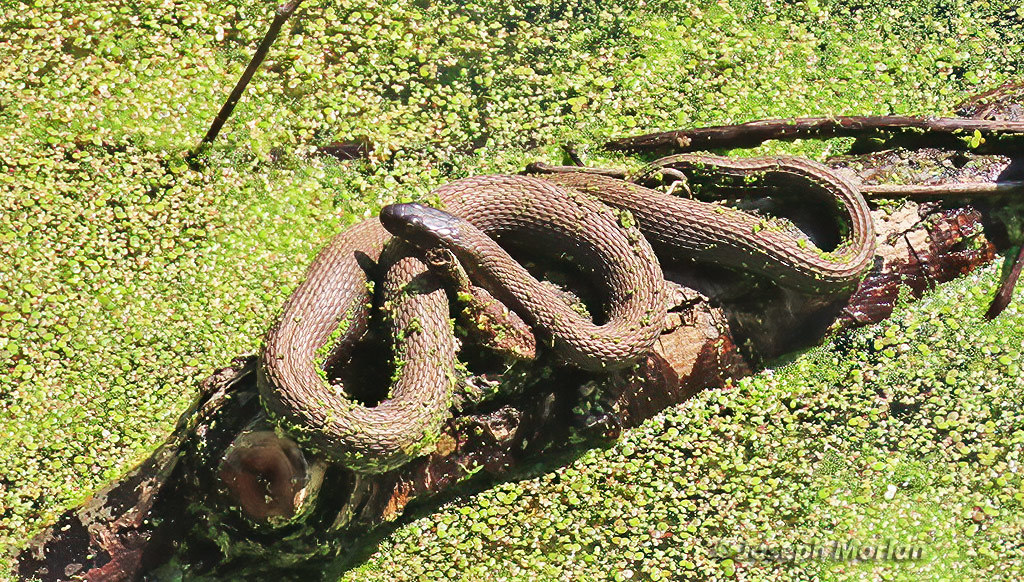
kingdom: Animalia
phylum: Chordata
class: Squamata
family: Colubridae
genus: Nerodia
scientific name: Nerodia sipedon
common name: Northern water snake
